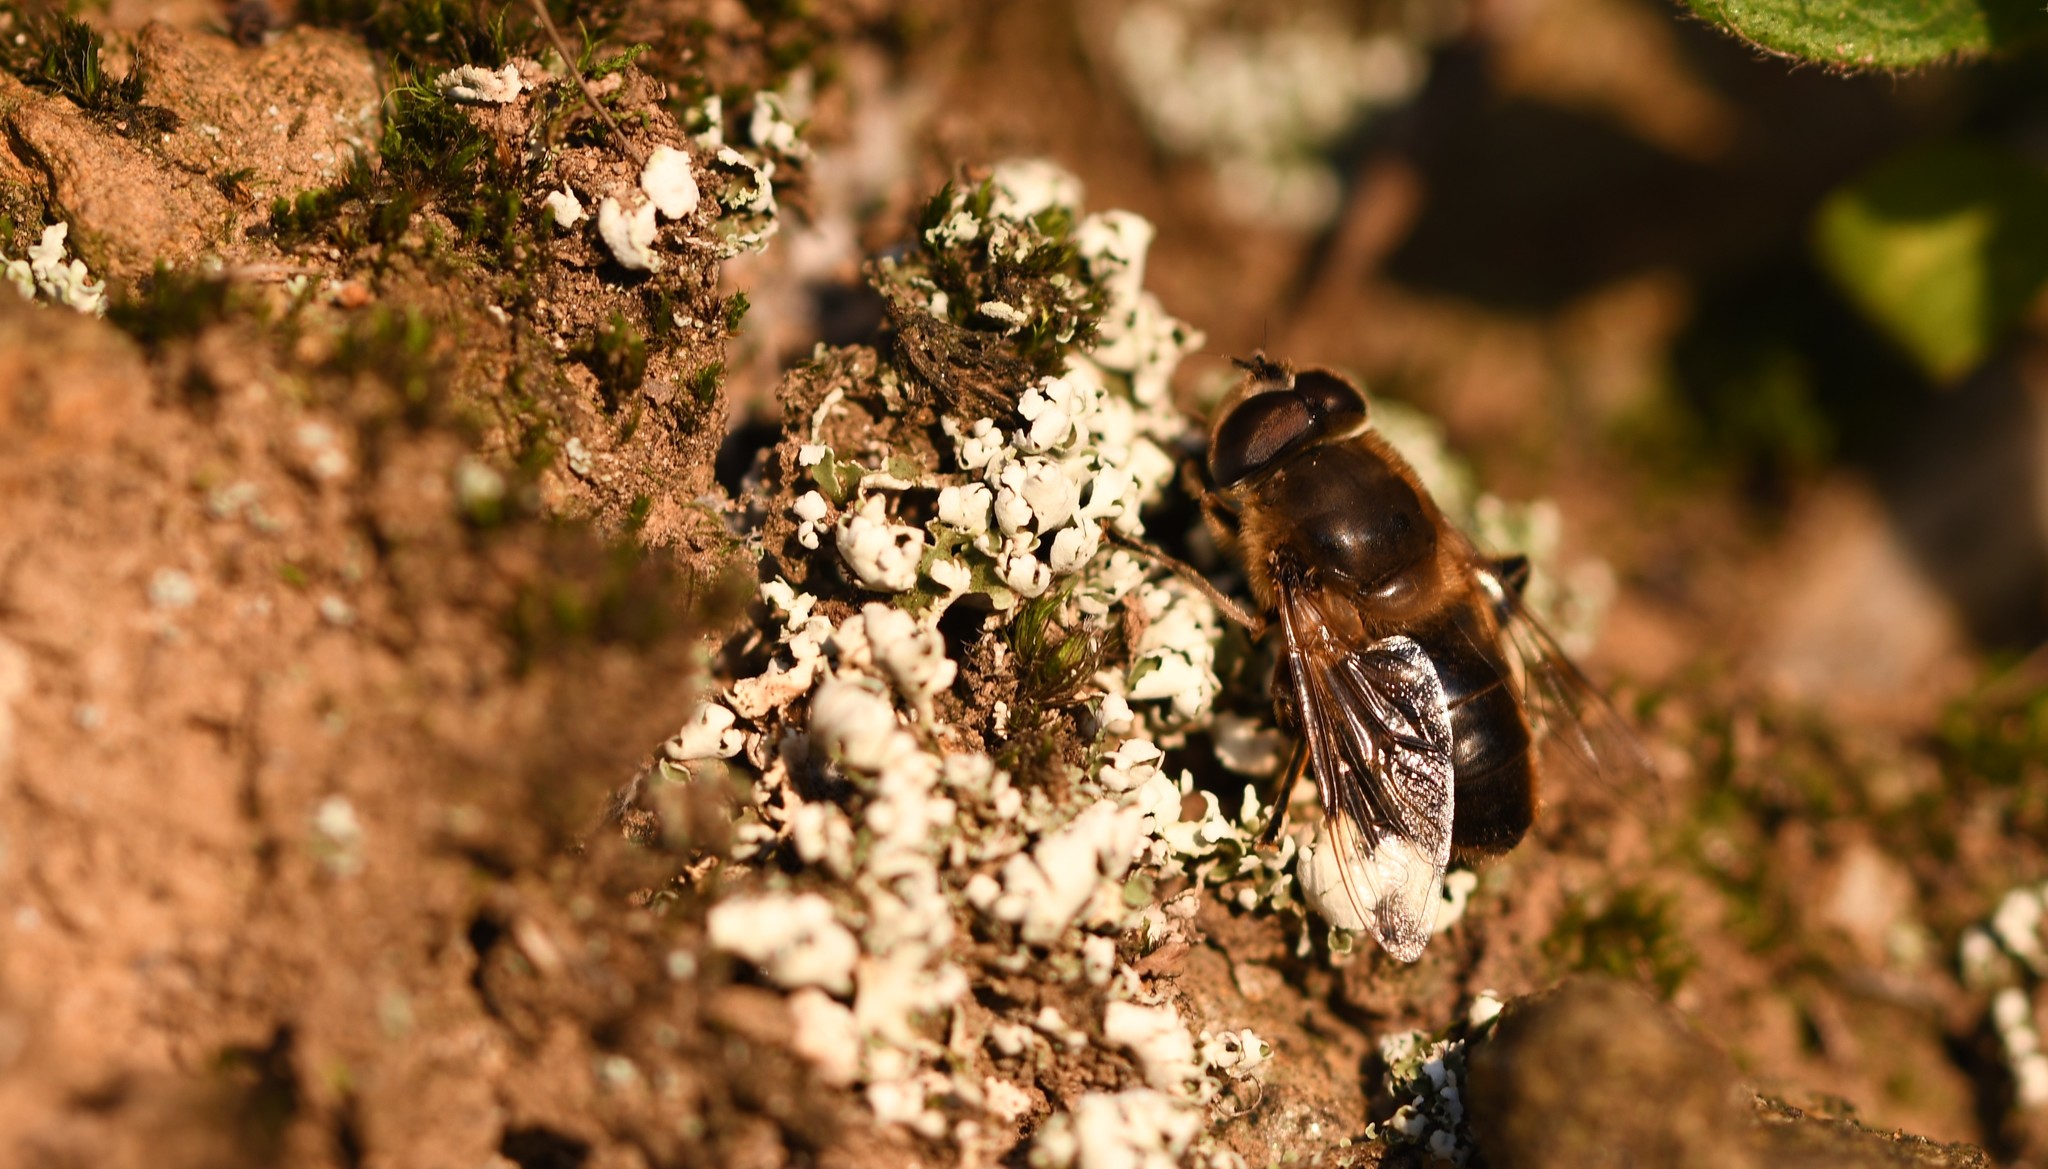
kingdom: Animalia
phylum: Arthropoda
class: Insecta
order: Diptera
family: Syrphidae
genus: Eristalis
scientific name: Eristalis tenax
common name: Drone fly
